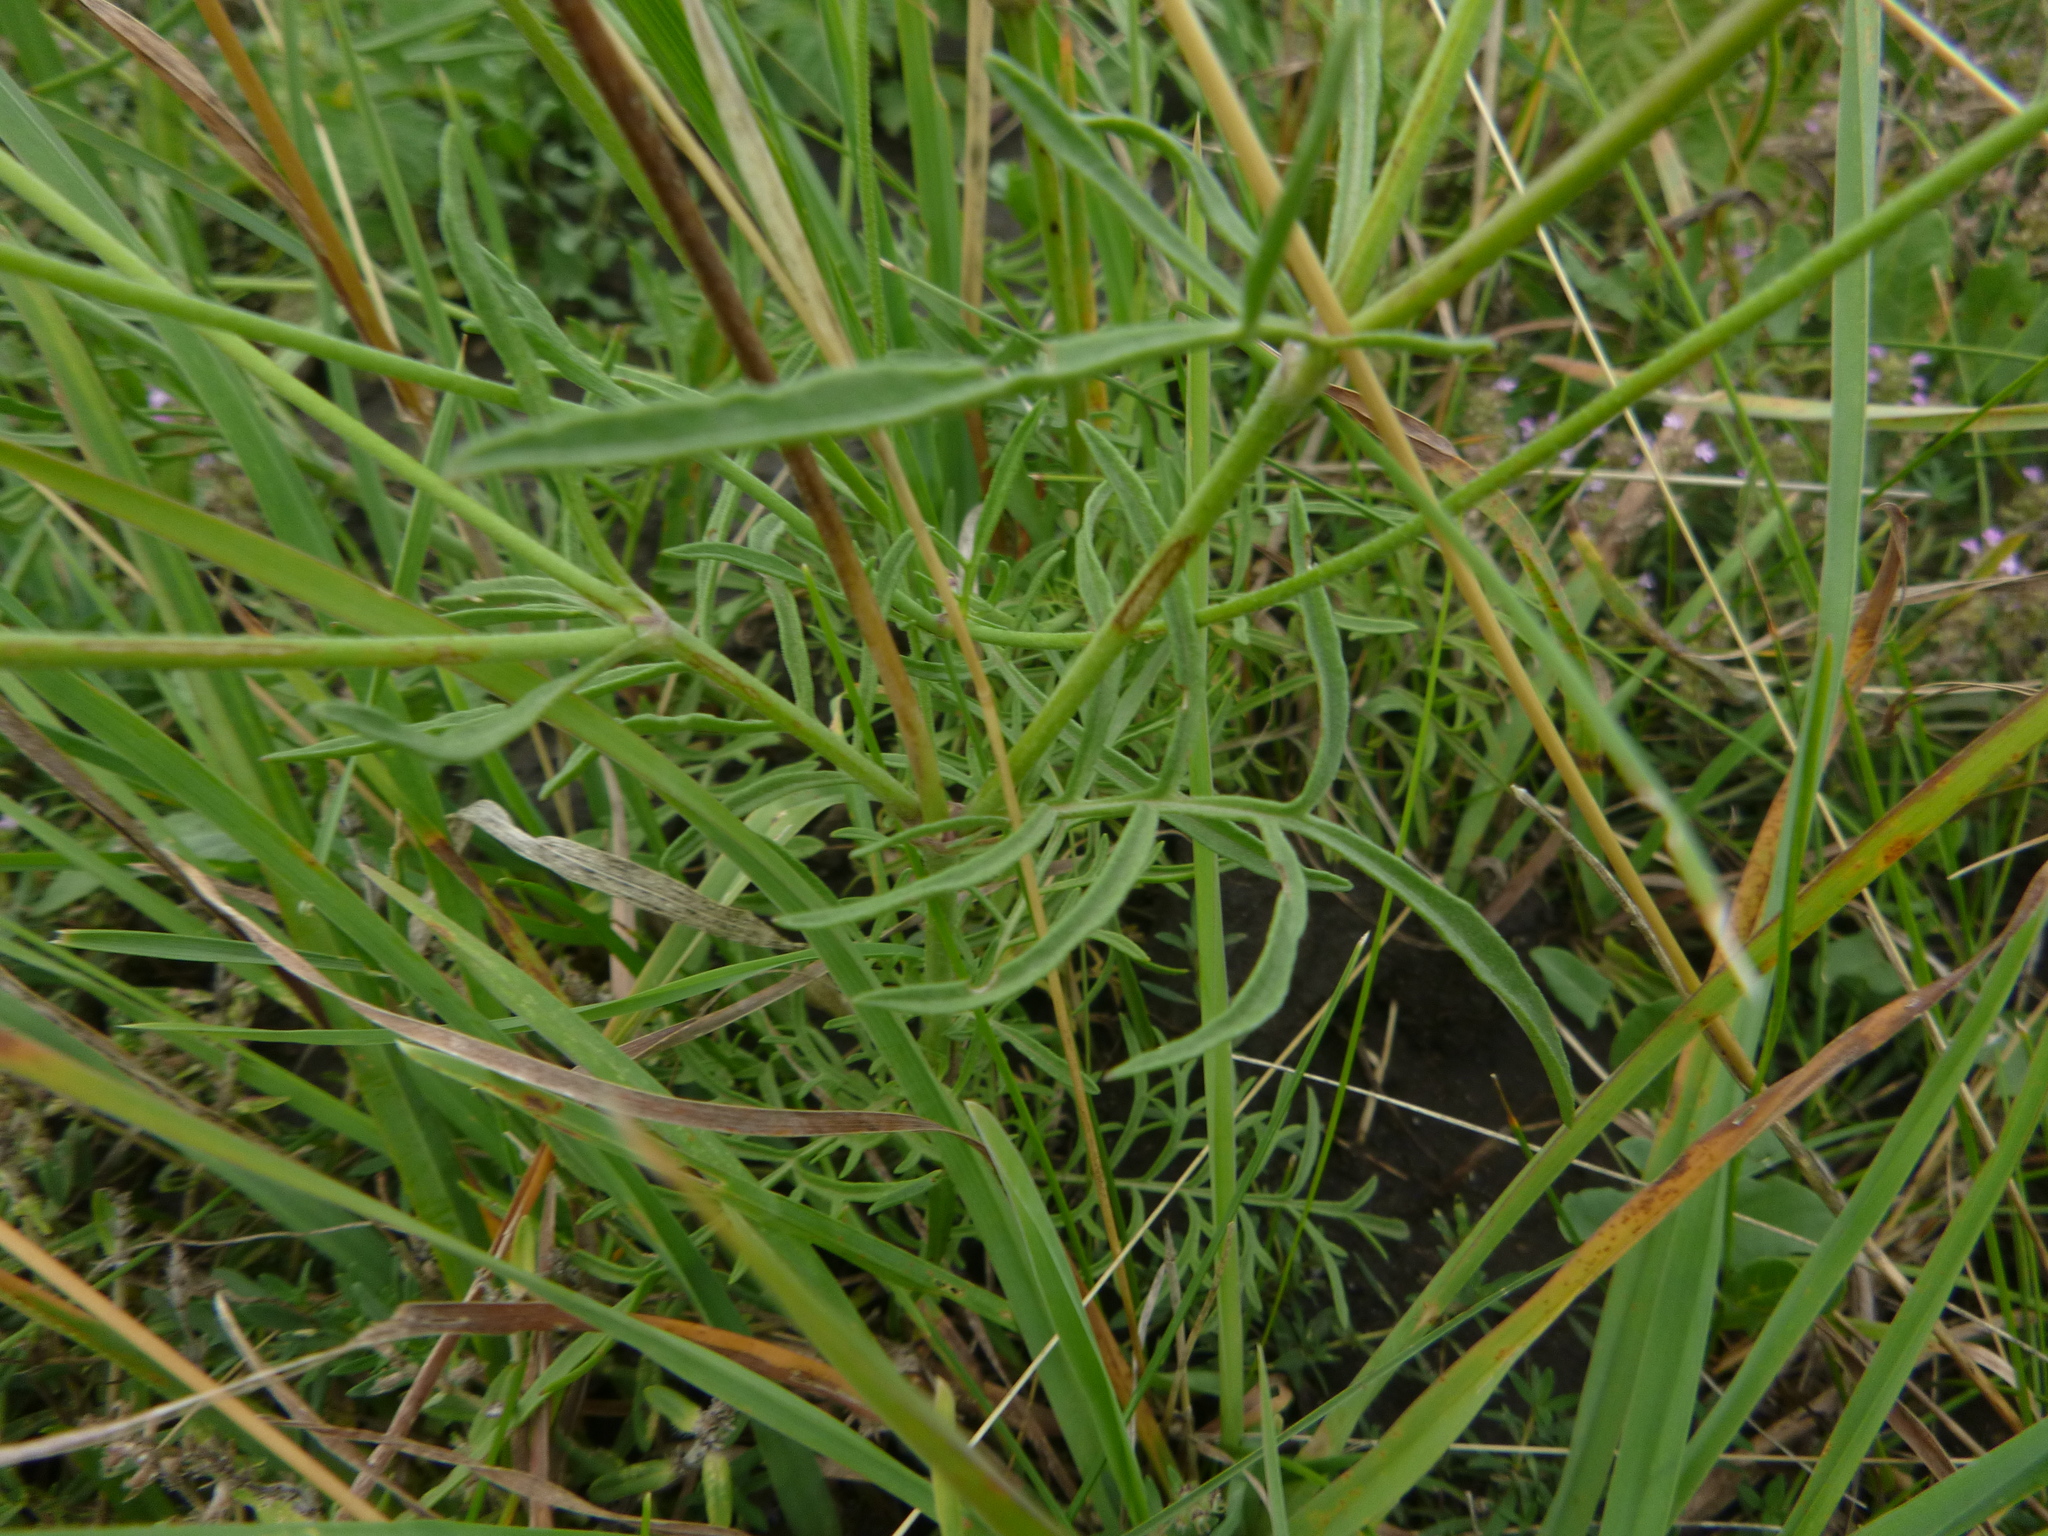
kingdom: Plantae
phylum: Tracheophyta
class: Magnoliopsida
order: Dipsacales
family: Caprifoliaceae
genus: Scabiosa
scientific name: Scabiosa ochroleuca
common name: Cream pincushions
